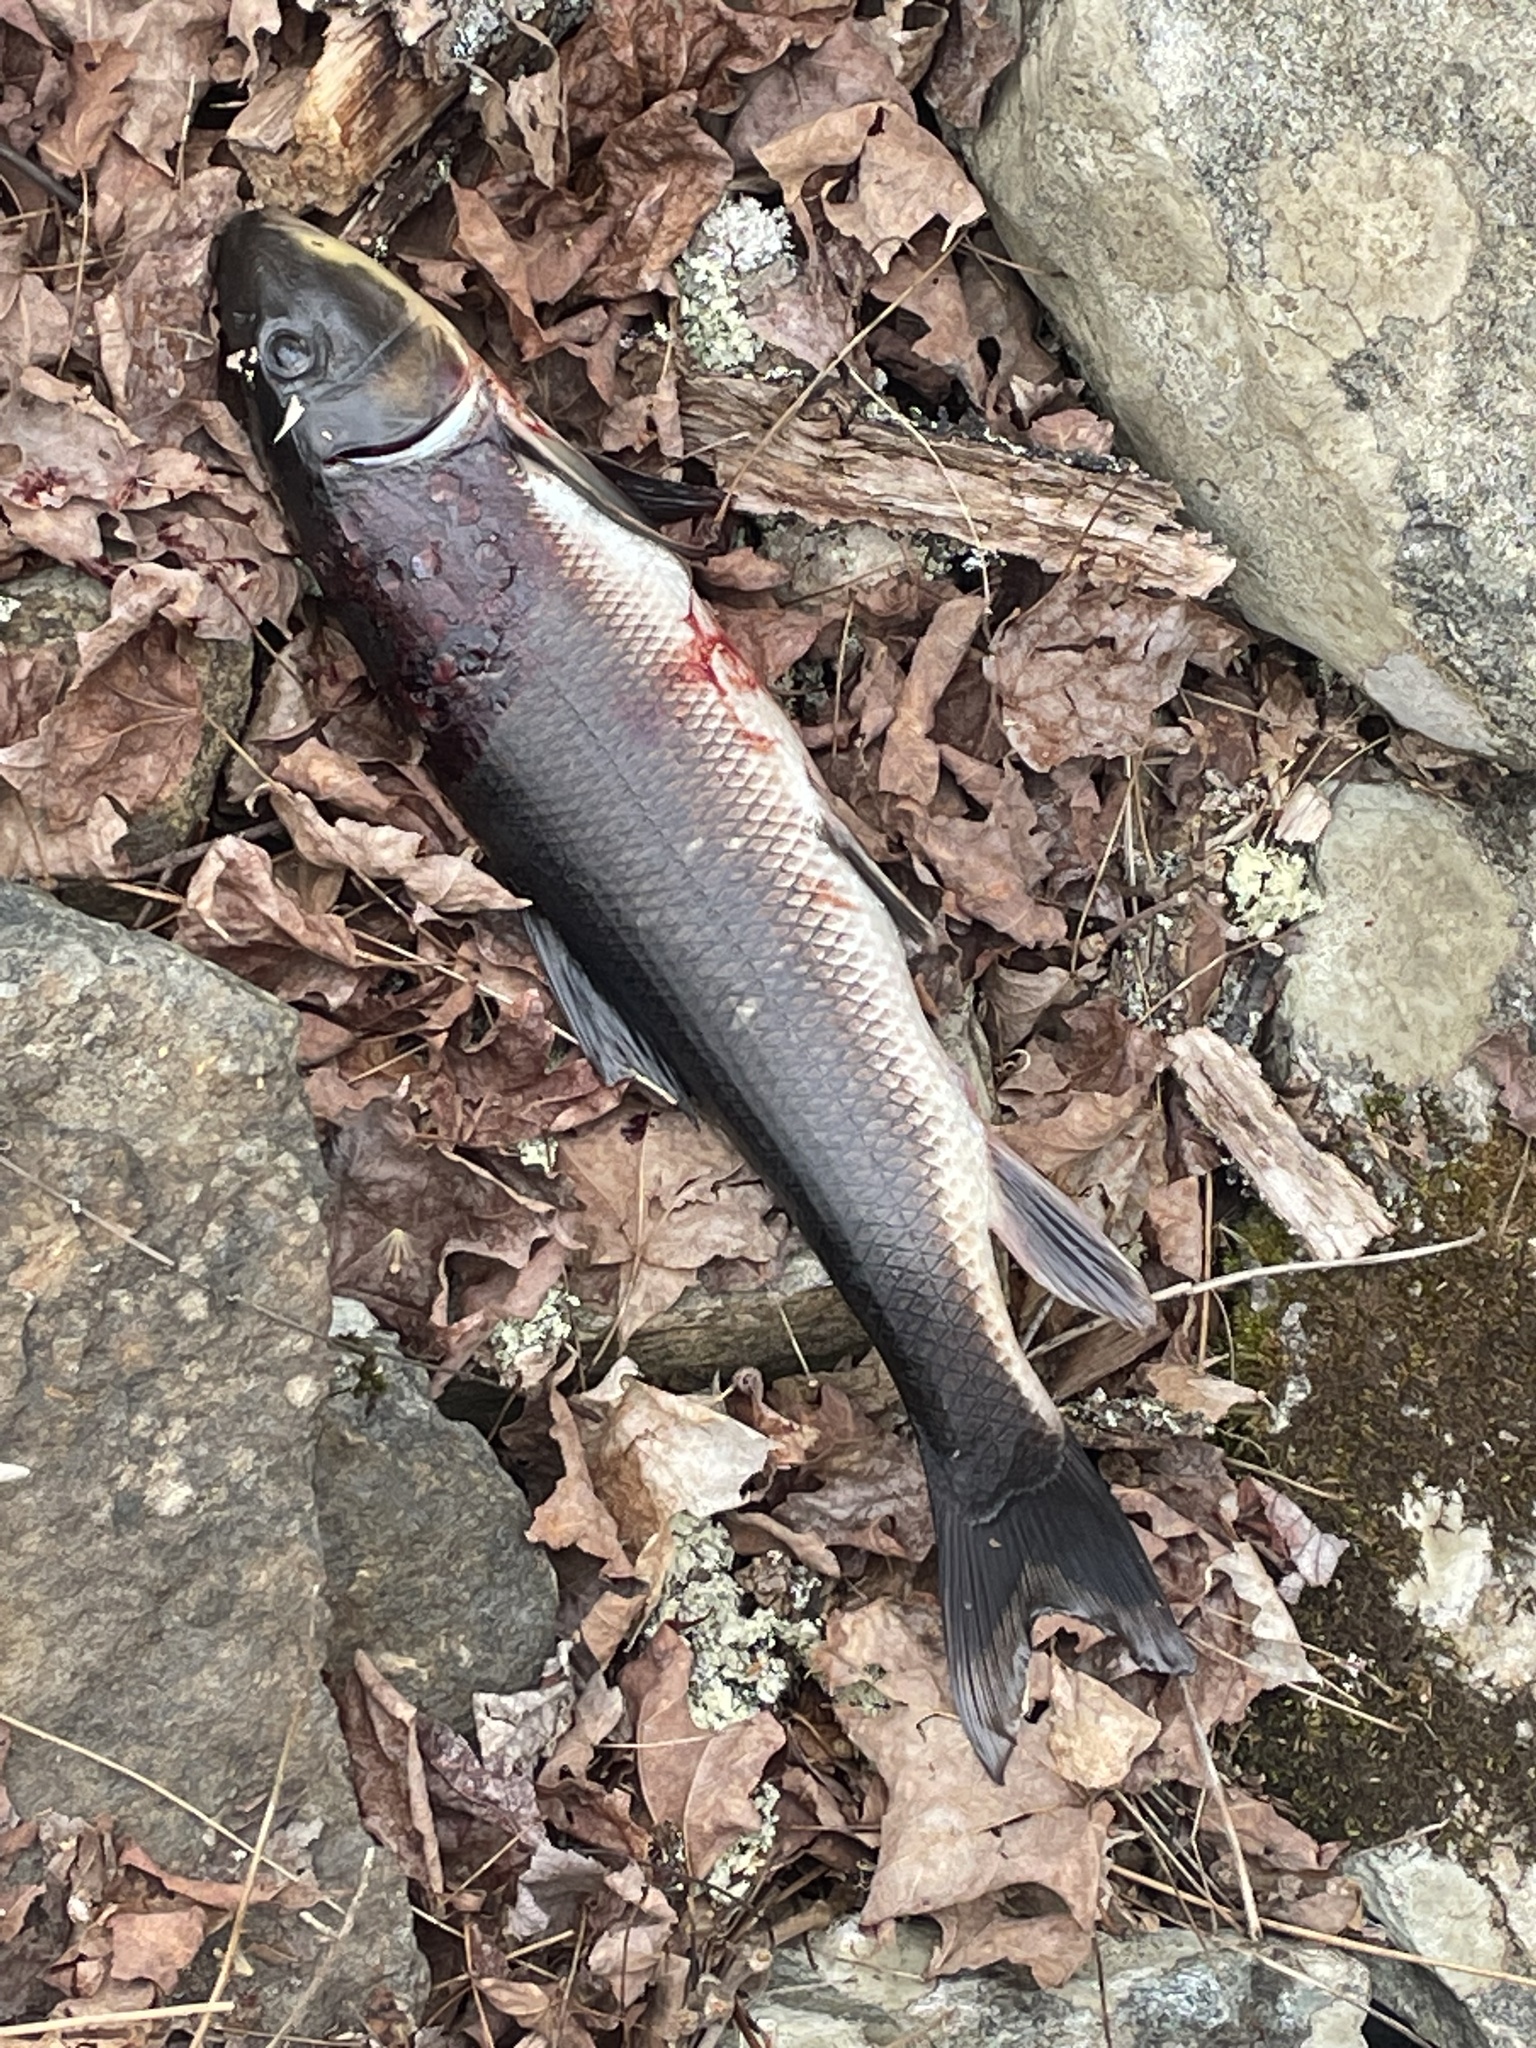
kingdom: Animalia
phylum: Chordata
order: Cypriniformes
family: Catostomidae
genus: Catostomus
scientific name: Catostomus commersonii
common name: White sucker
